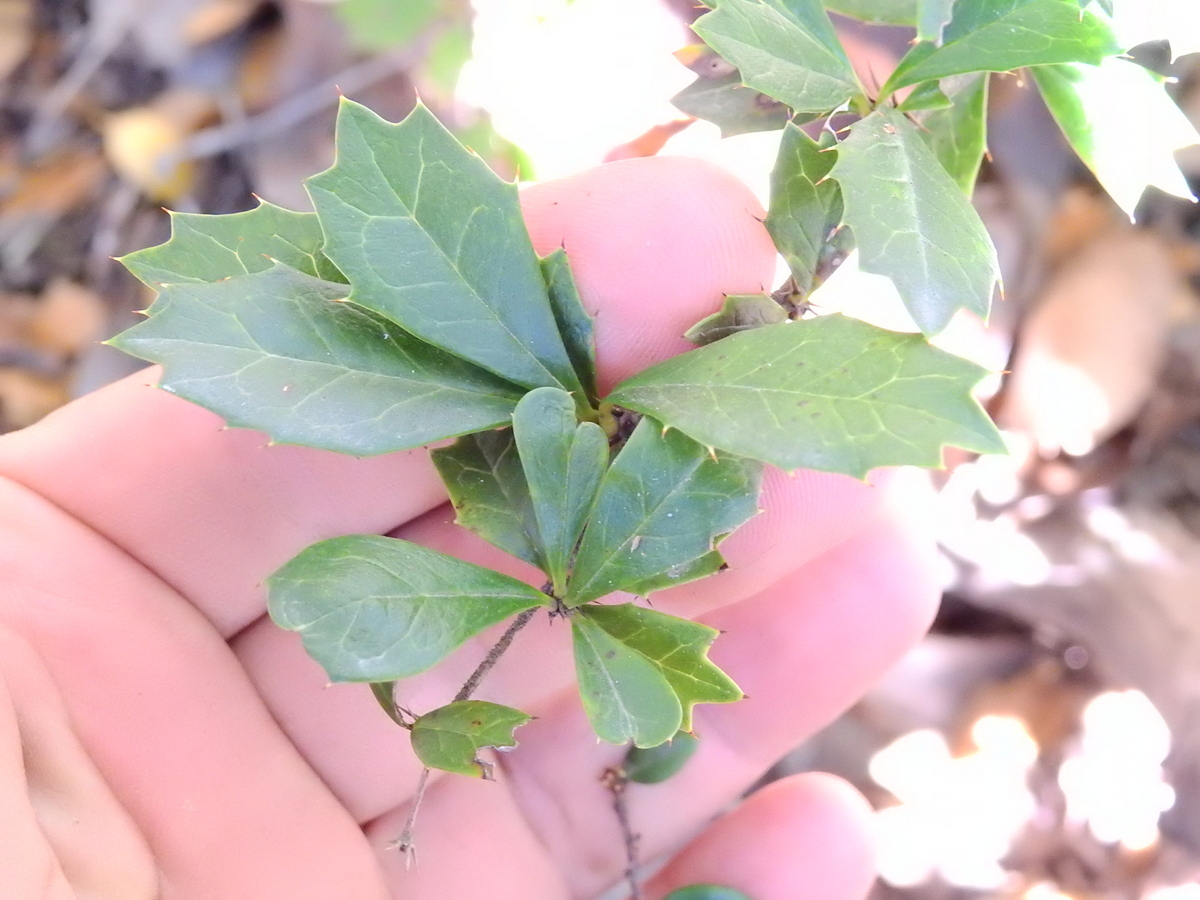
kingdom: Plantae
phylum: Tracheophyta
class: Magnoliopsida
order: Ranunculales
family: Berberidaceae
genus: Berberis
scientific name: Berberis darwinii
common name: Darwin's barberry
